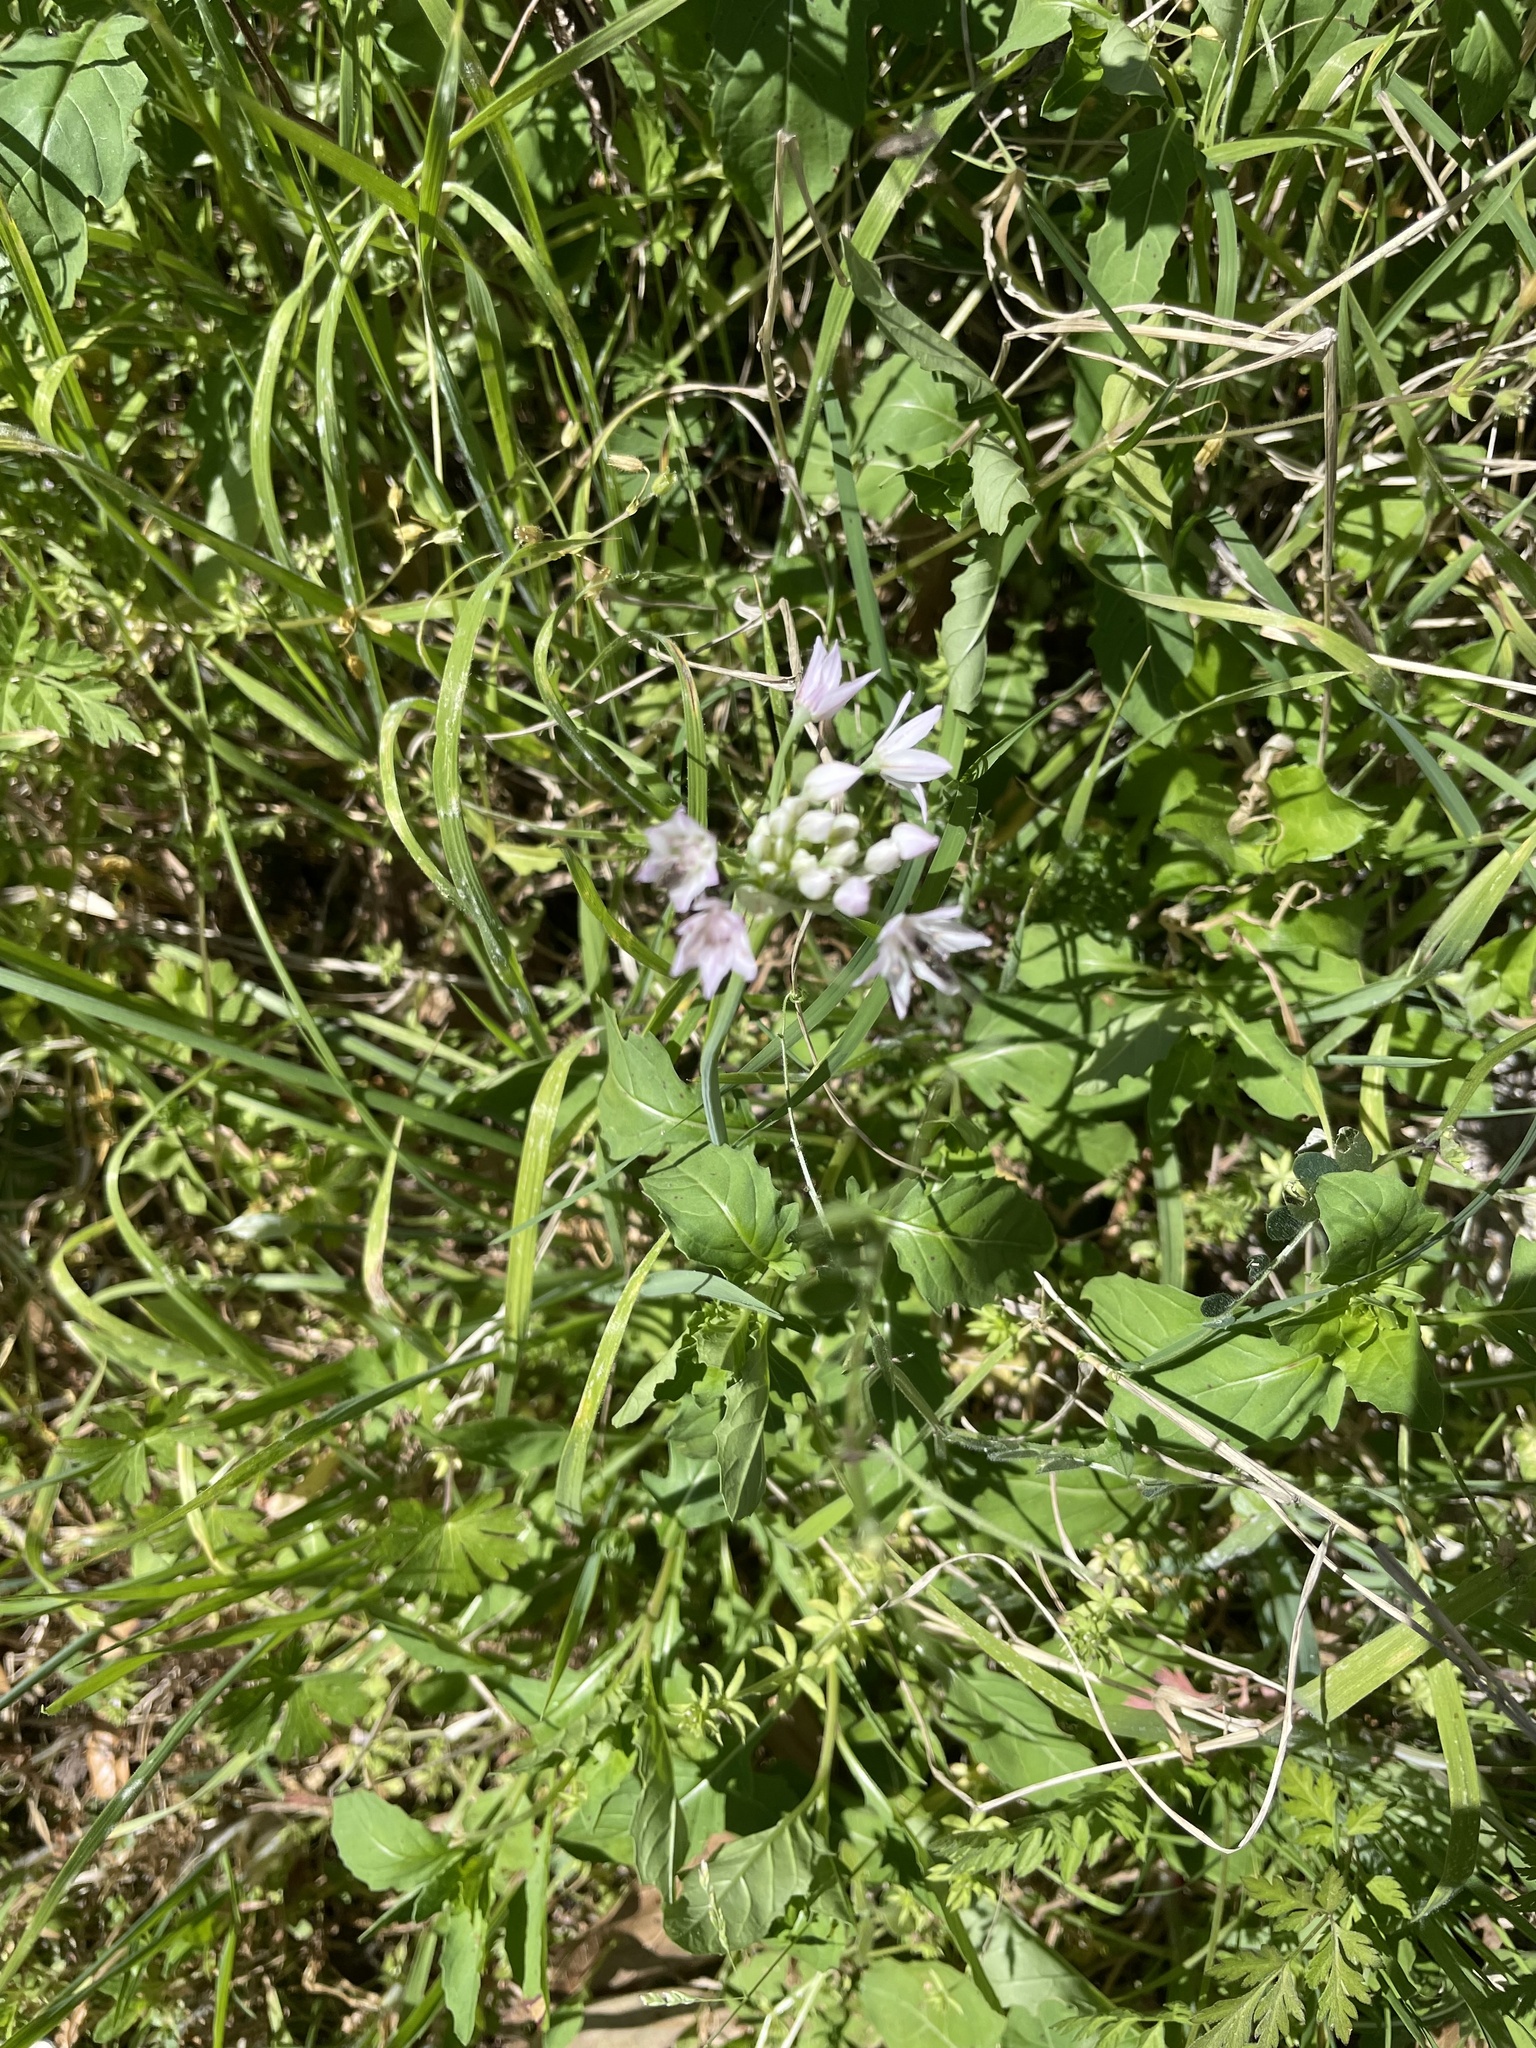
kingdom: Plantae
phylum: Tracheophyta
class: Liliopsida
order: Asparagales
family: Amaryllidaceae
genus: Allium
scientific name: Allium drummondii
